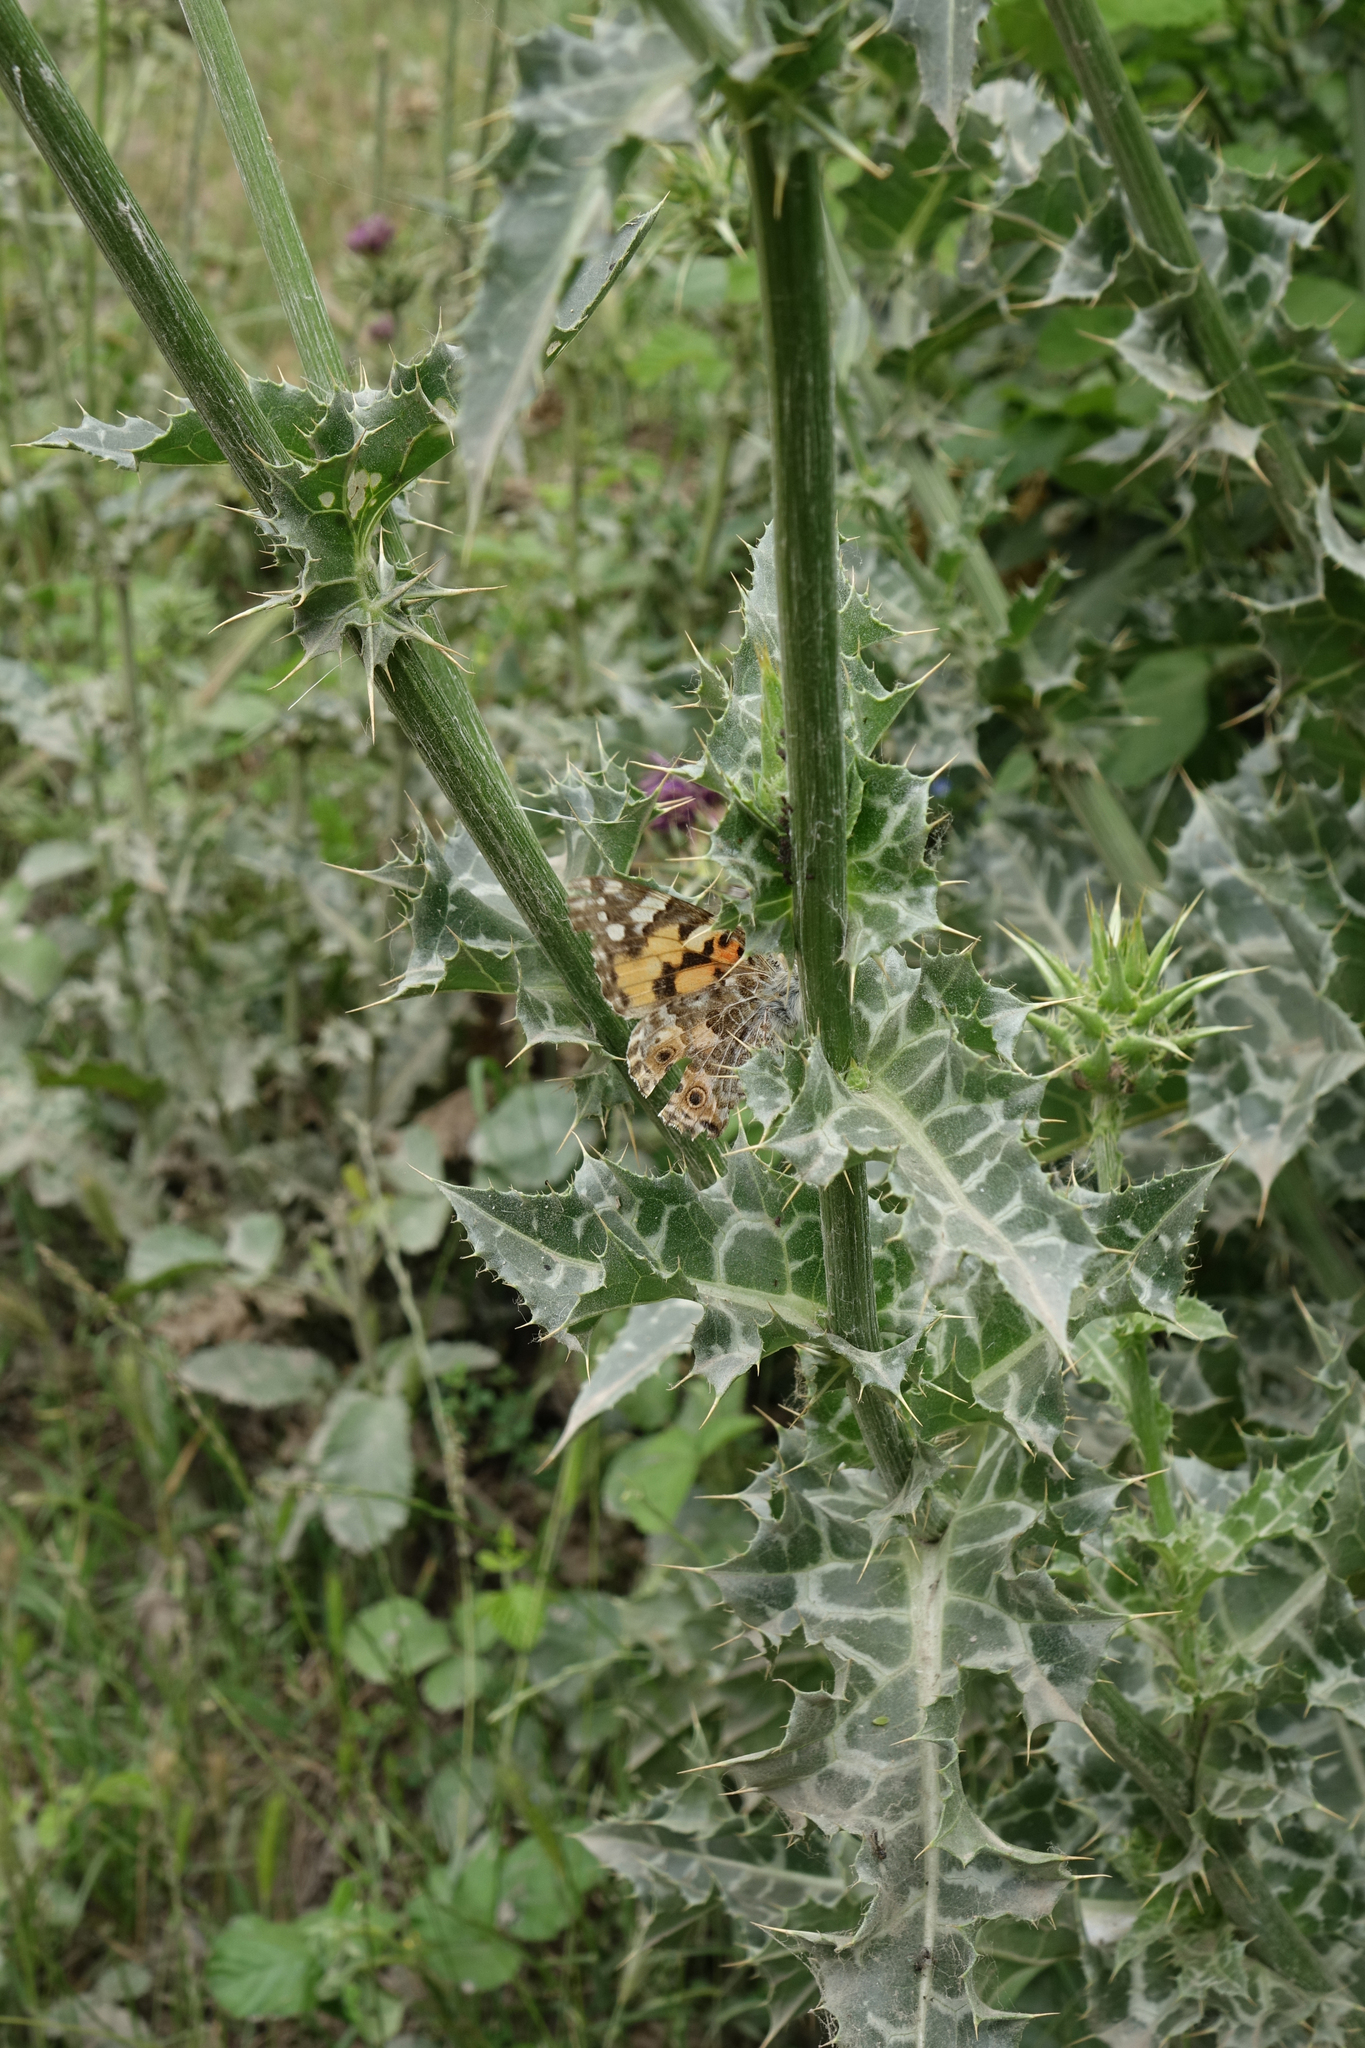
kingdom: Plantae
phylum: Tracheophyta
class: Magnoliopsida
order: Asterales
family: Asteraceae
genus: Silybum
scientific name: Silybum marianum
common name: Milk thistle
